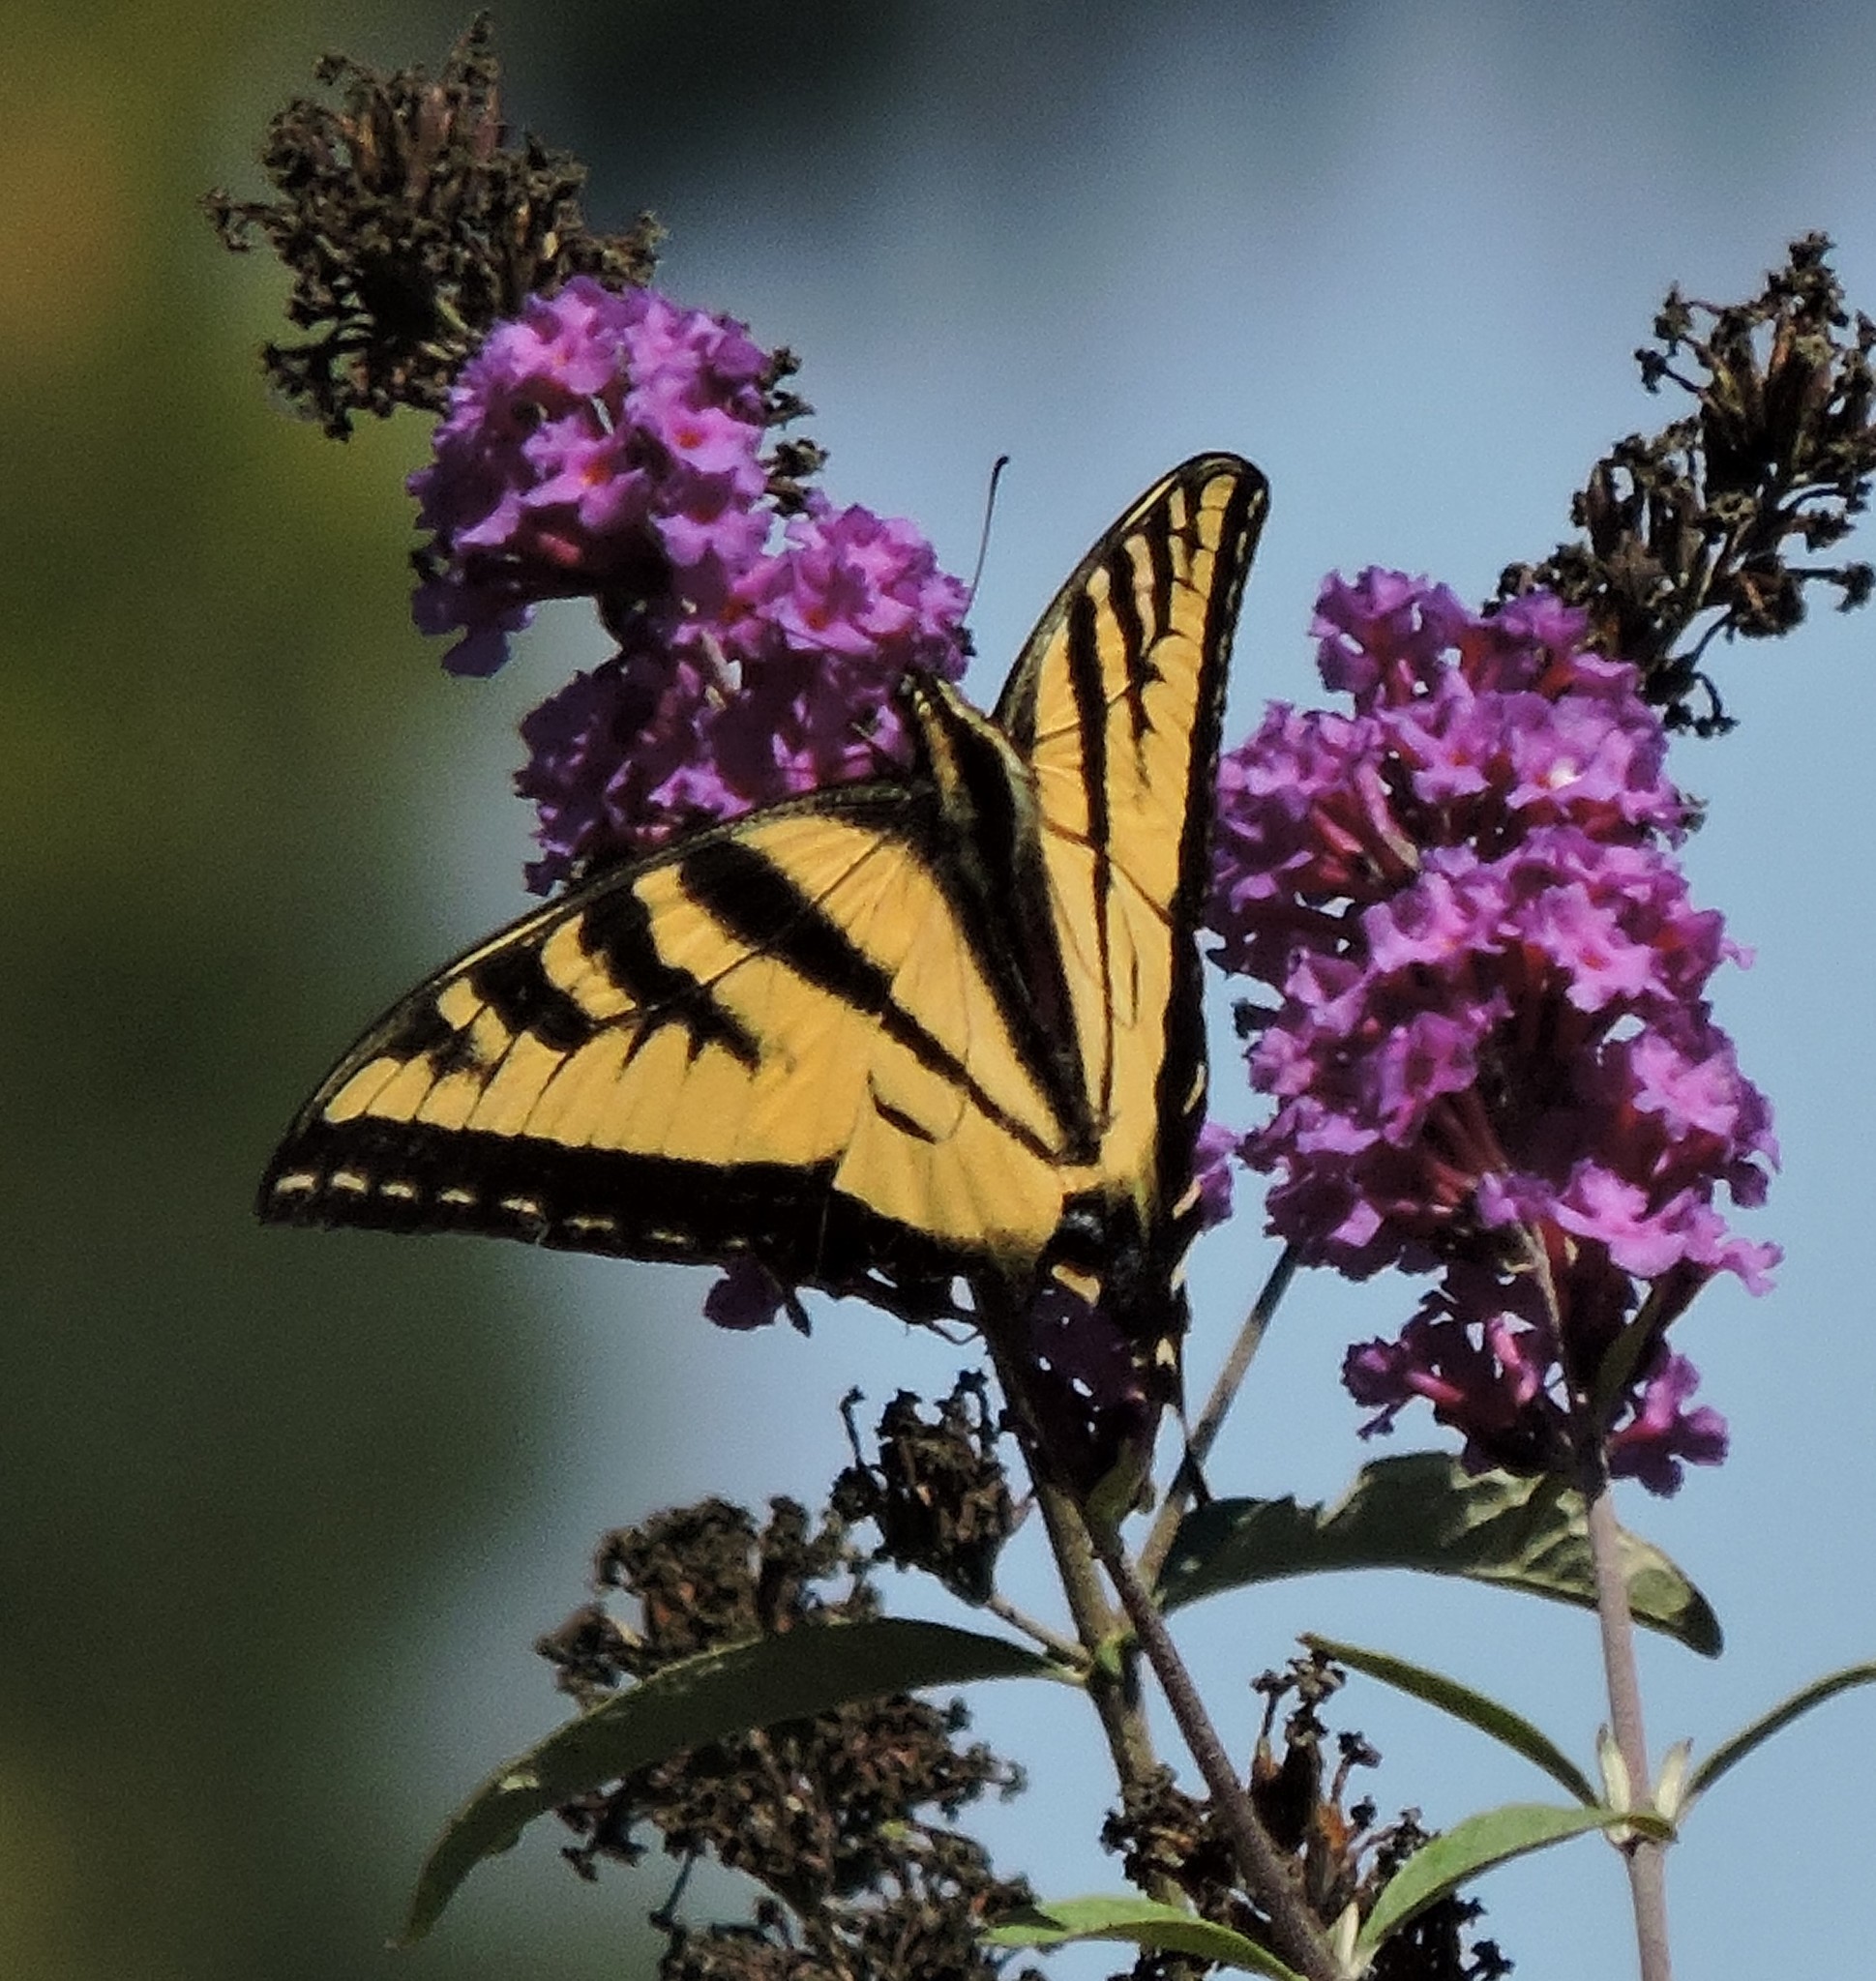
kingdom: Animalia
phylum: Arthropoda
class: Insecta
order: Lepidoptera
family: Papilionidae
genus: Papilio
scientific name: Papilio rutulus
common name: Western tiger swallowtail
